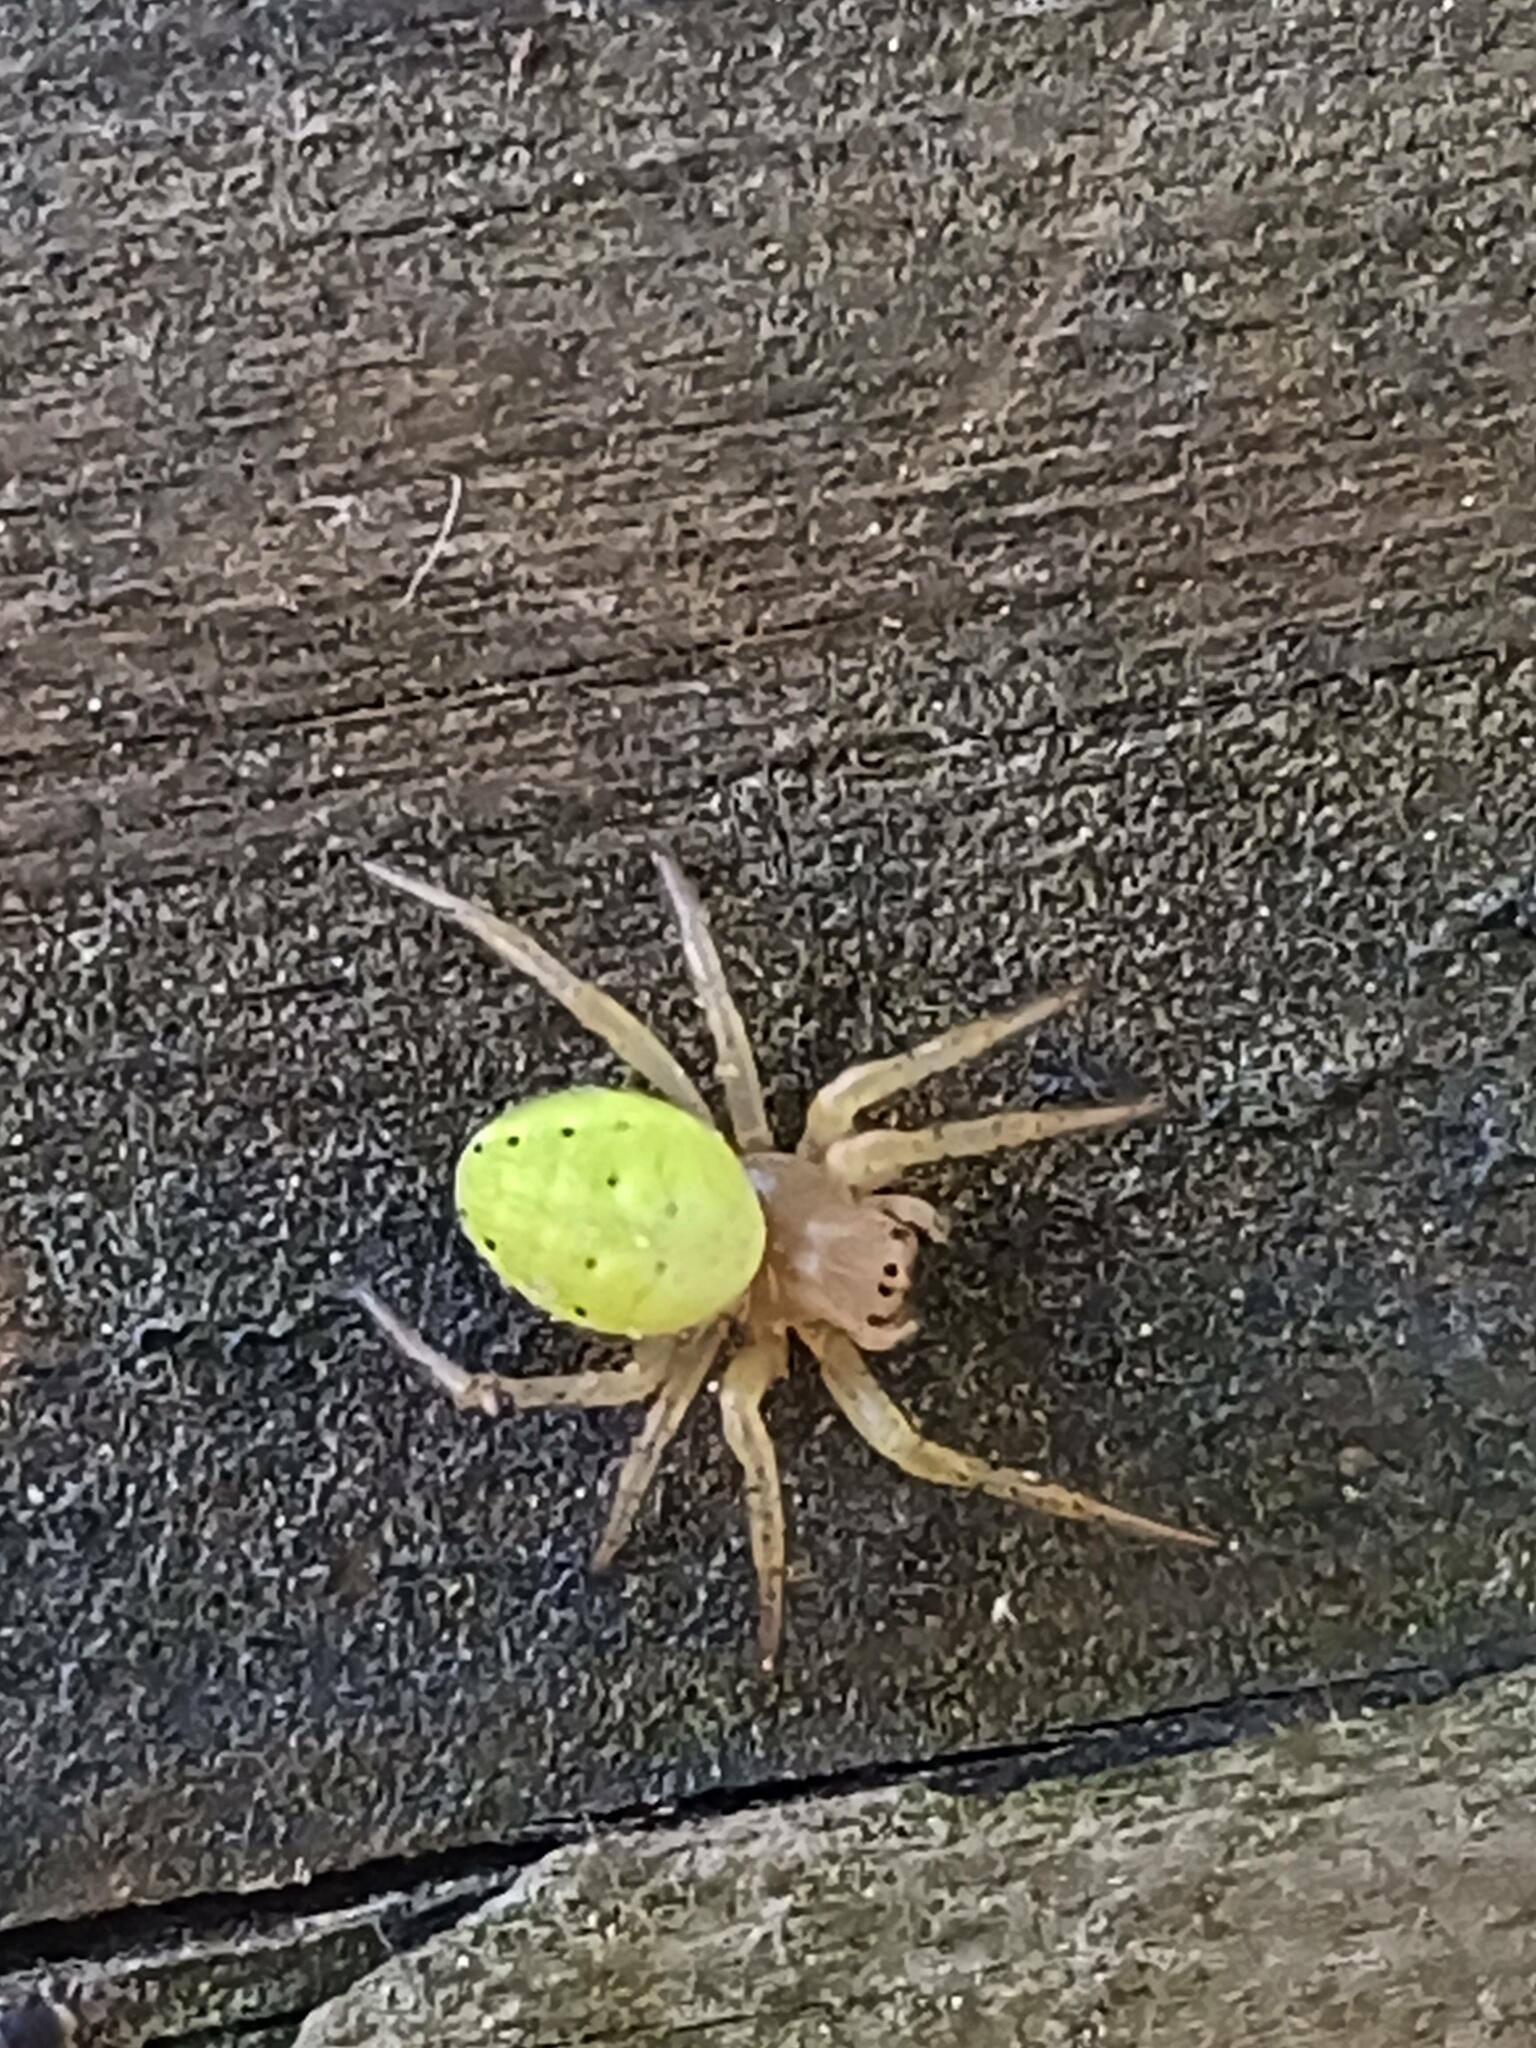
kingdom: Animalia
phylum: Arthropoda
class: Arachnida
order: Araneae
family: Araneidae
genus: Araniella
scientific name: Araniella
